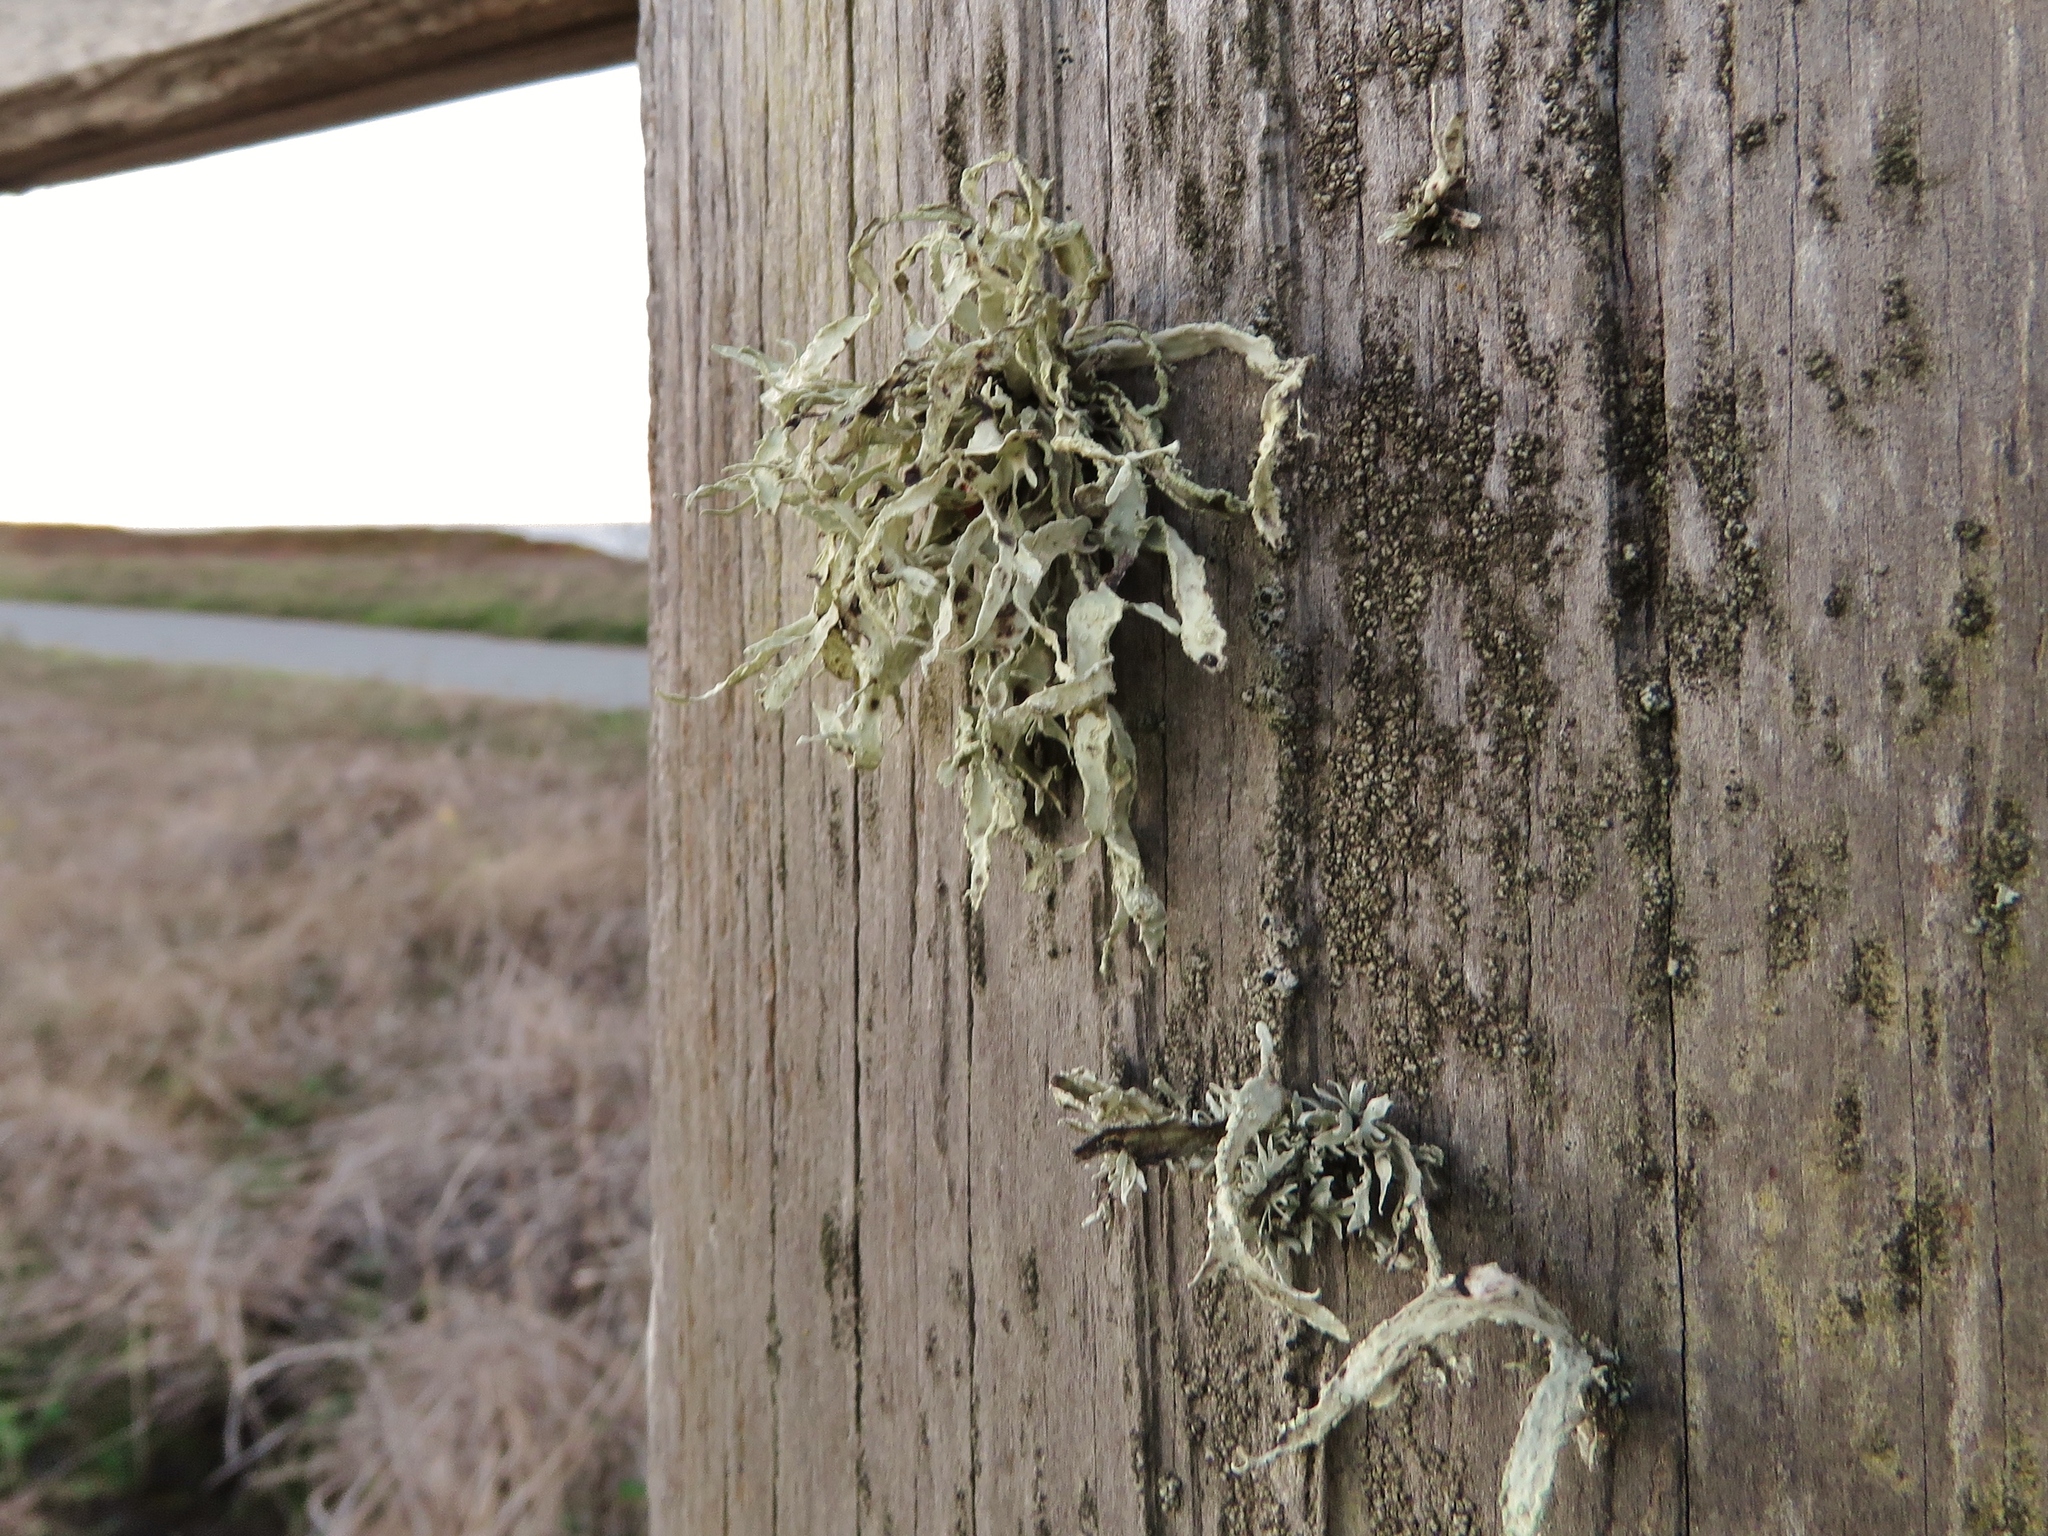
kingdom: Fungi
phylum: Ascomycota
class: Lecanoromycetes
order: Lecanorales
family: Ramalinaceae
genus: Ramalina
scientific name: Ramalina canariensis
